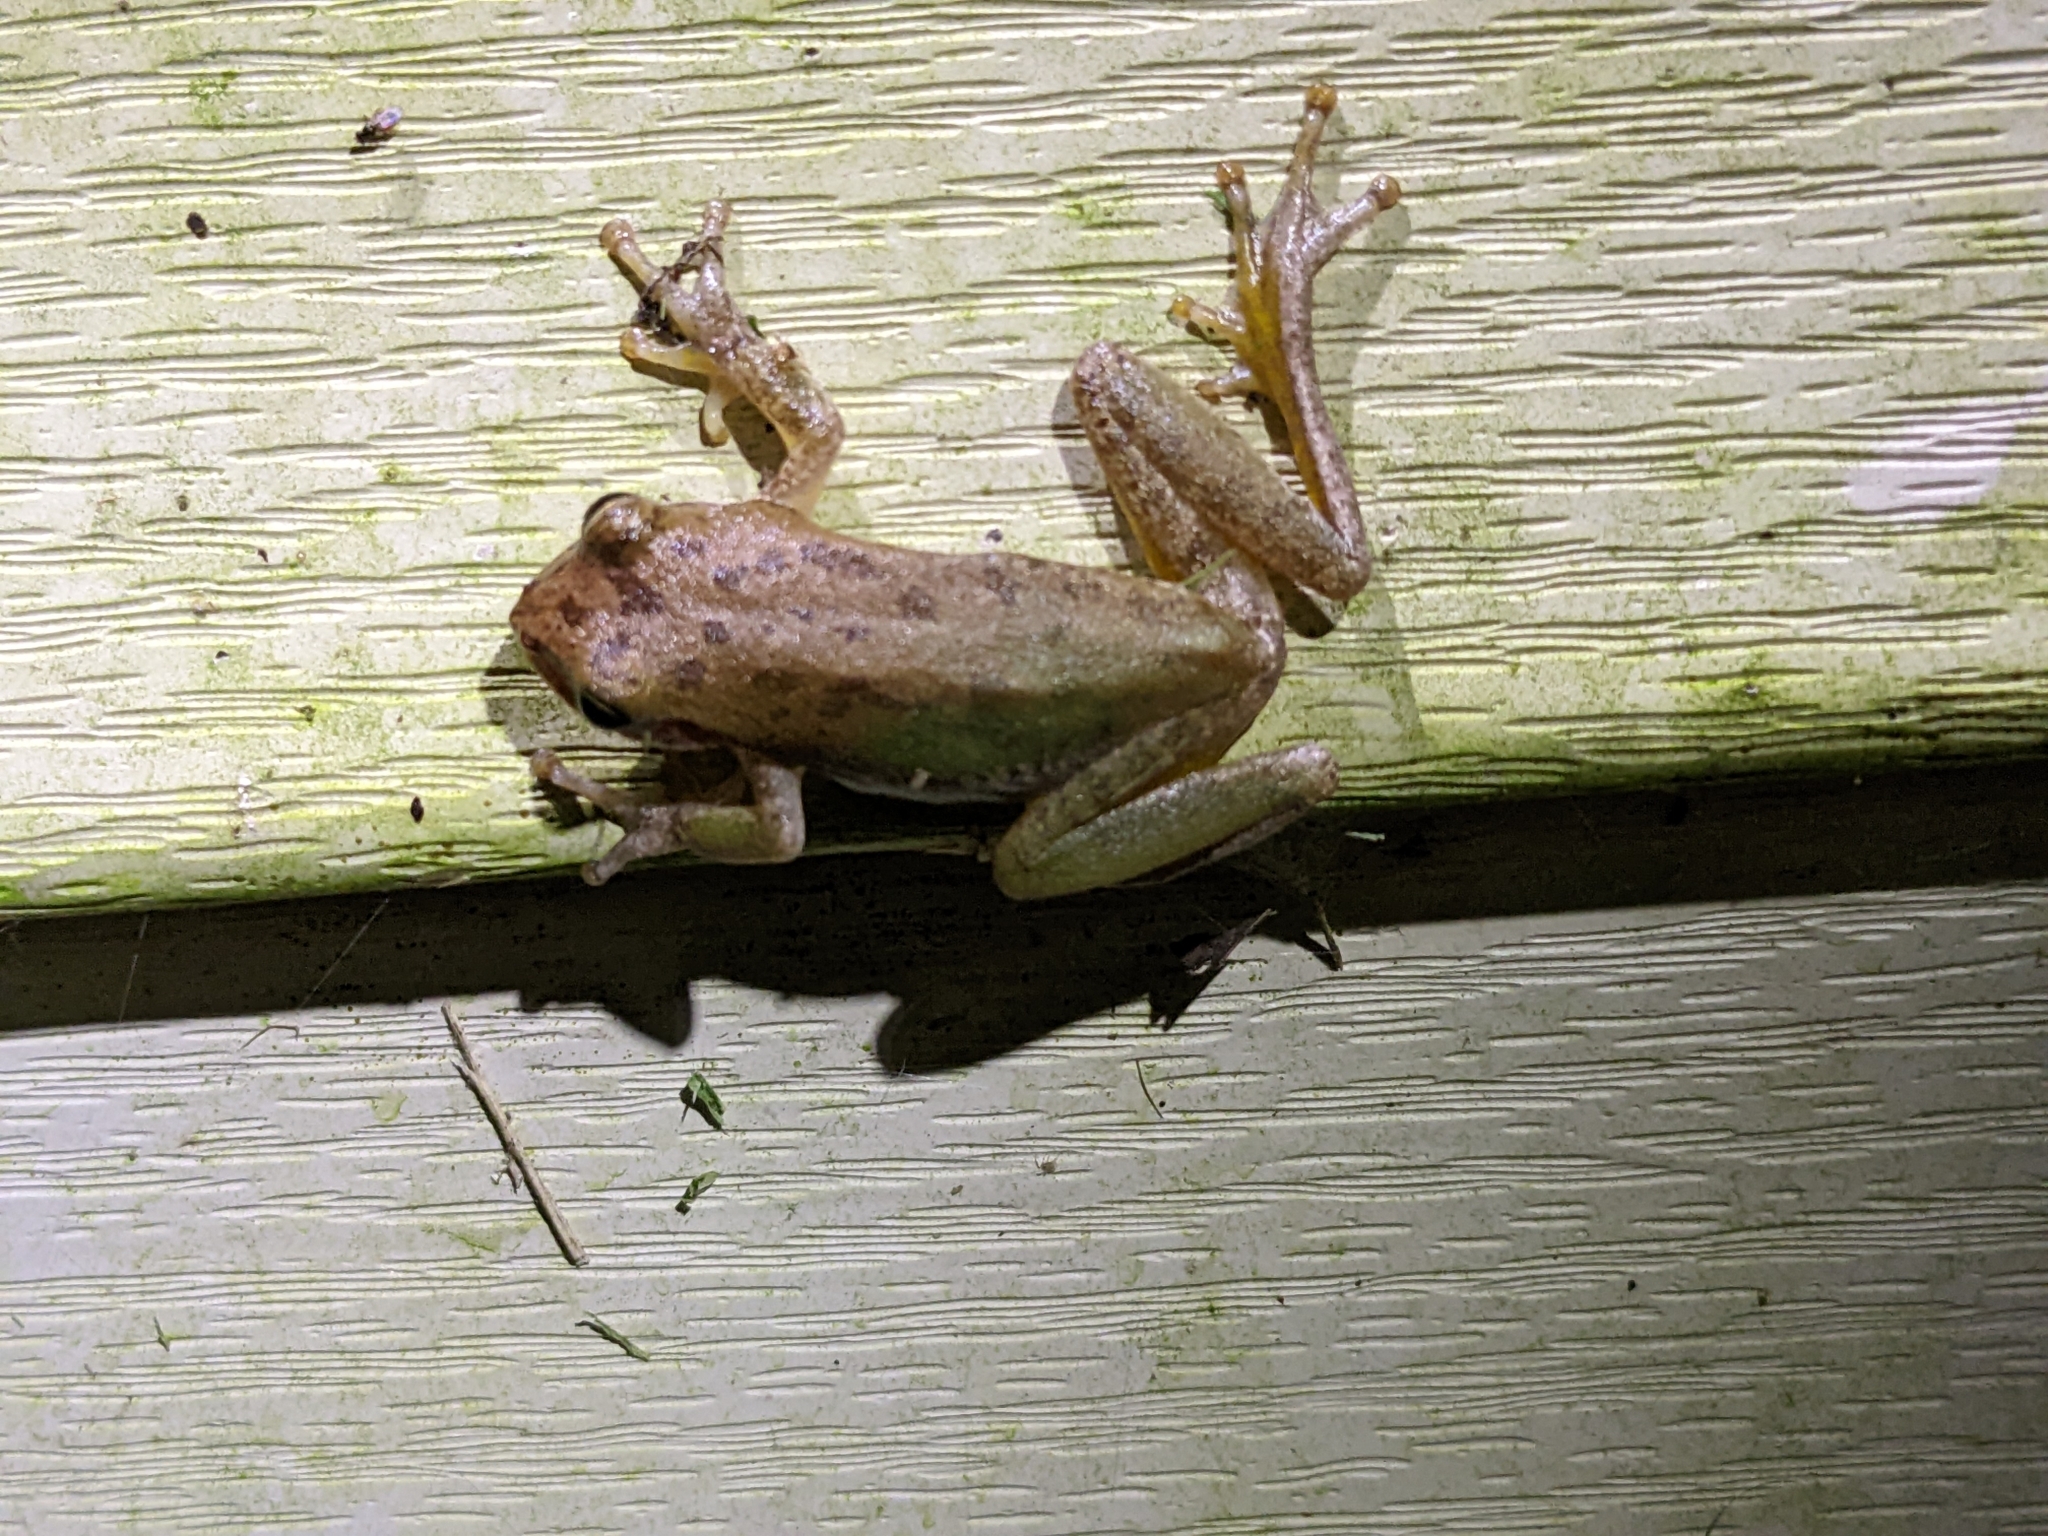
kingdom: Animalia
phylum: Chordata
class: Amphibia
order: Anura
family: Hylidae
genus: Dryophytes
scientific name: Dryophytes squirellus
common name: Squirrel treefrog
